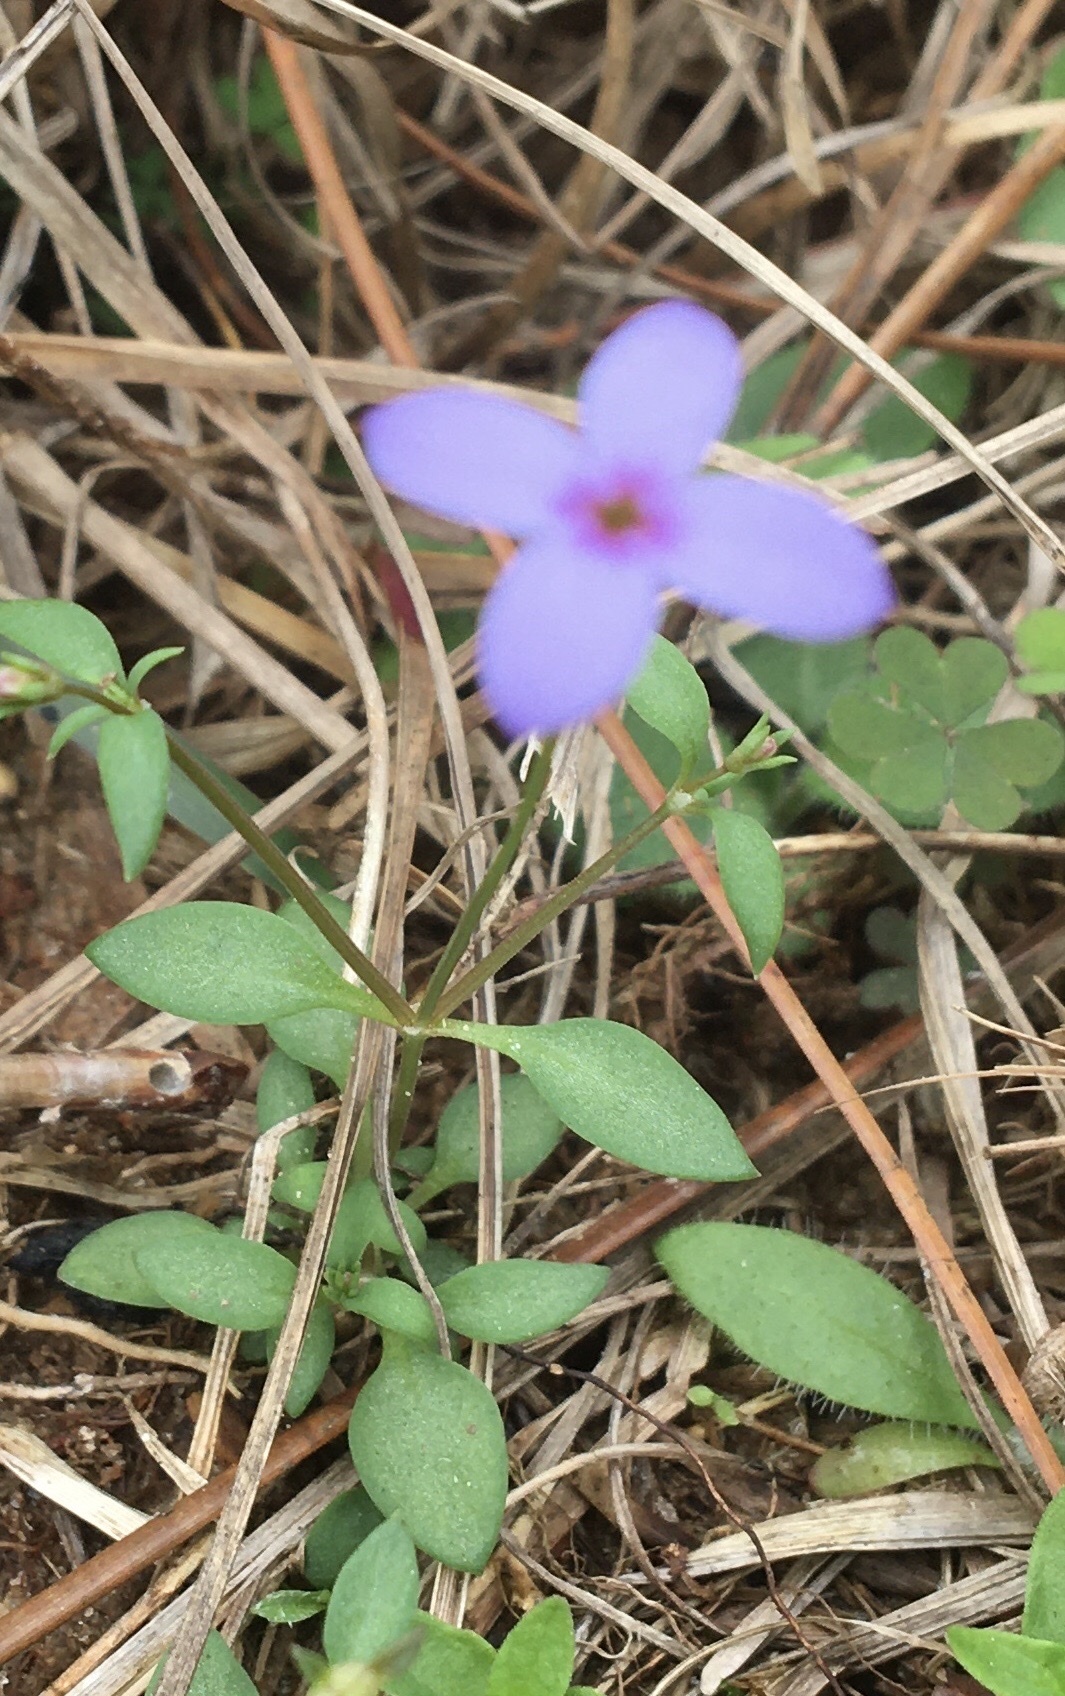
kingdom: Plantae
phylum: Tracheophyta
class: Magnoliopsida
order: Gentianales
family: Rubiaceae
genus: Houstonia
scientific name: Houstonia pusilla
